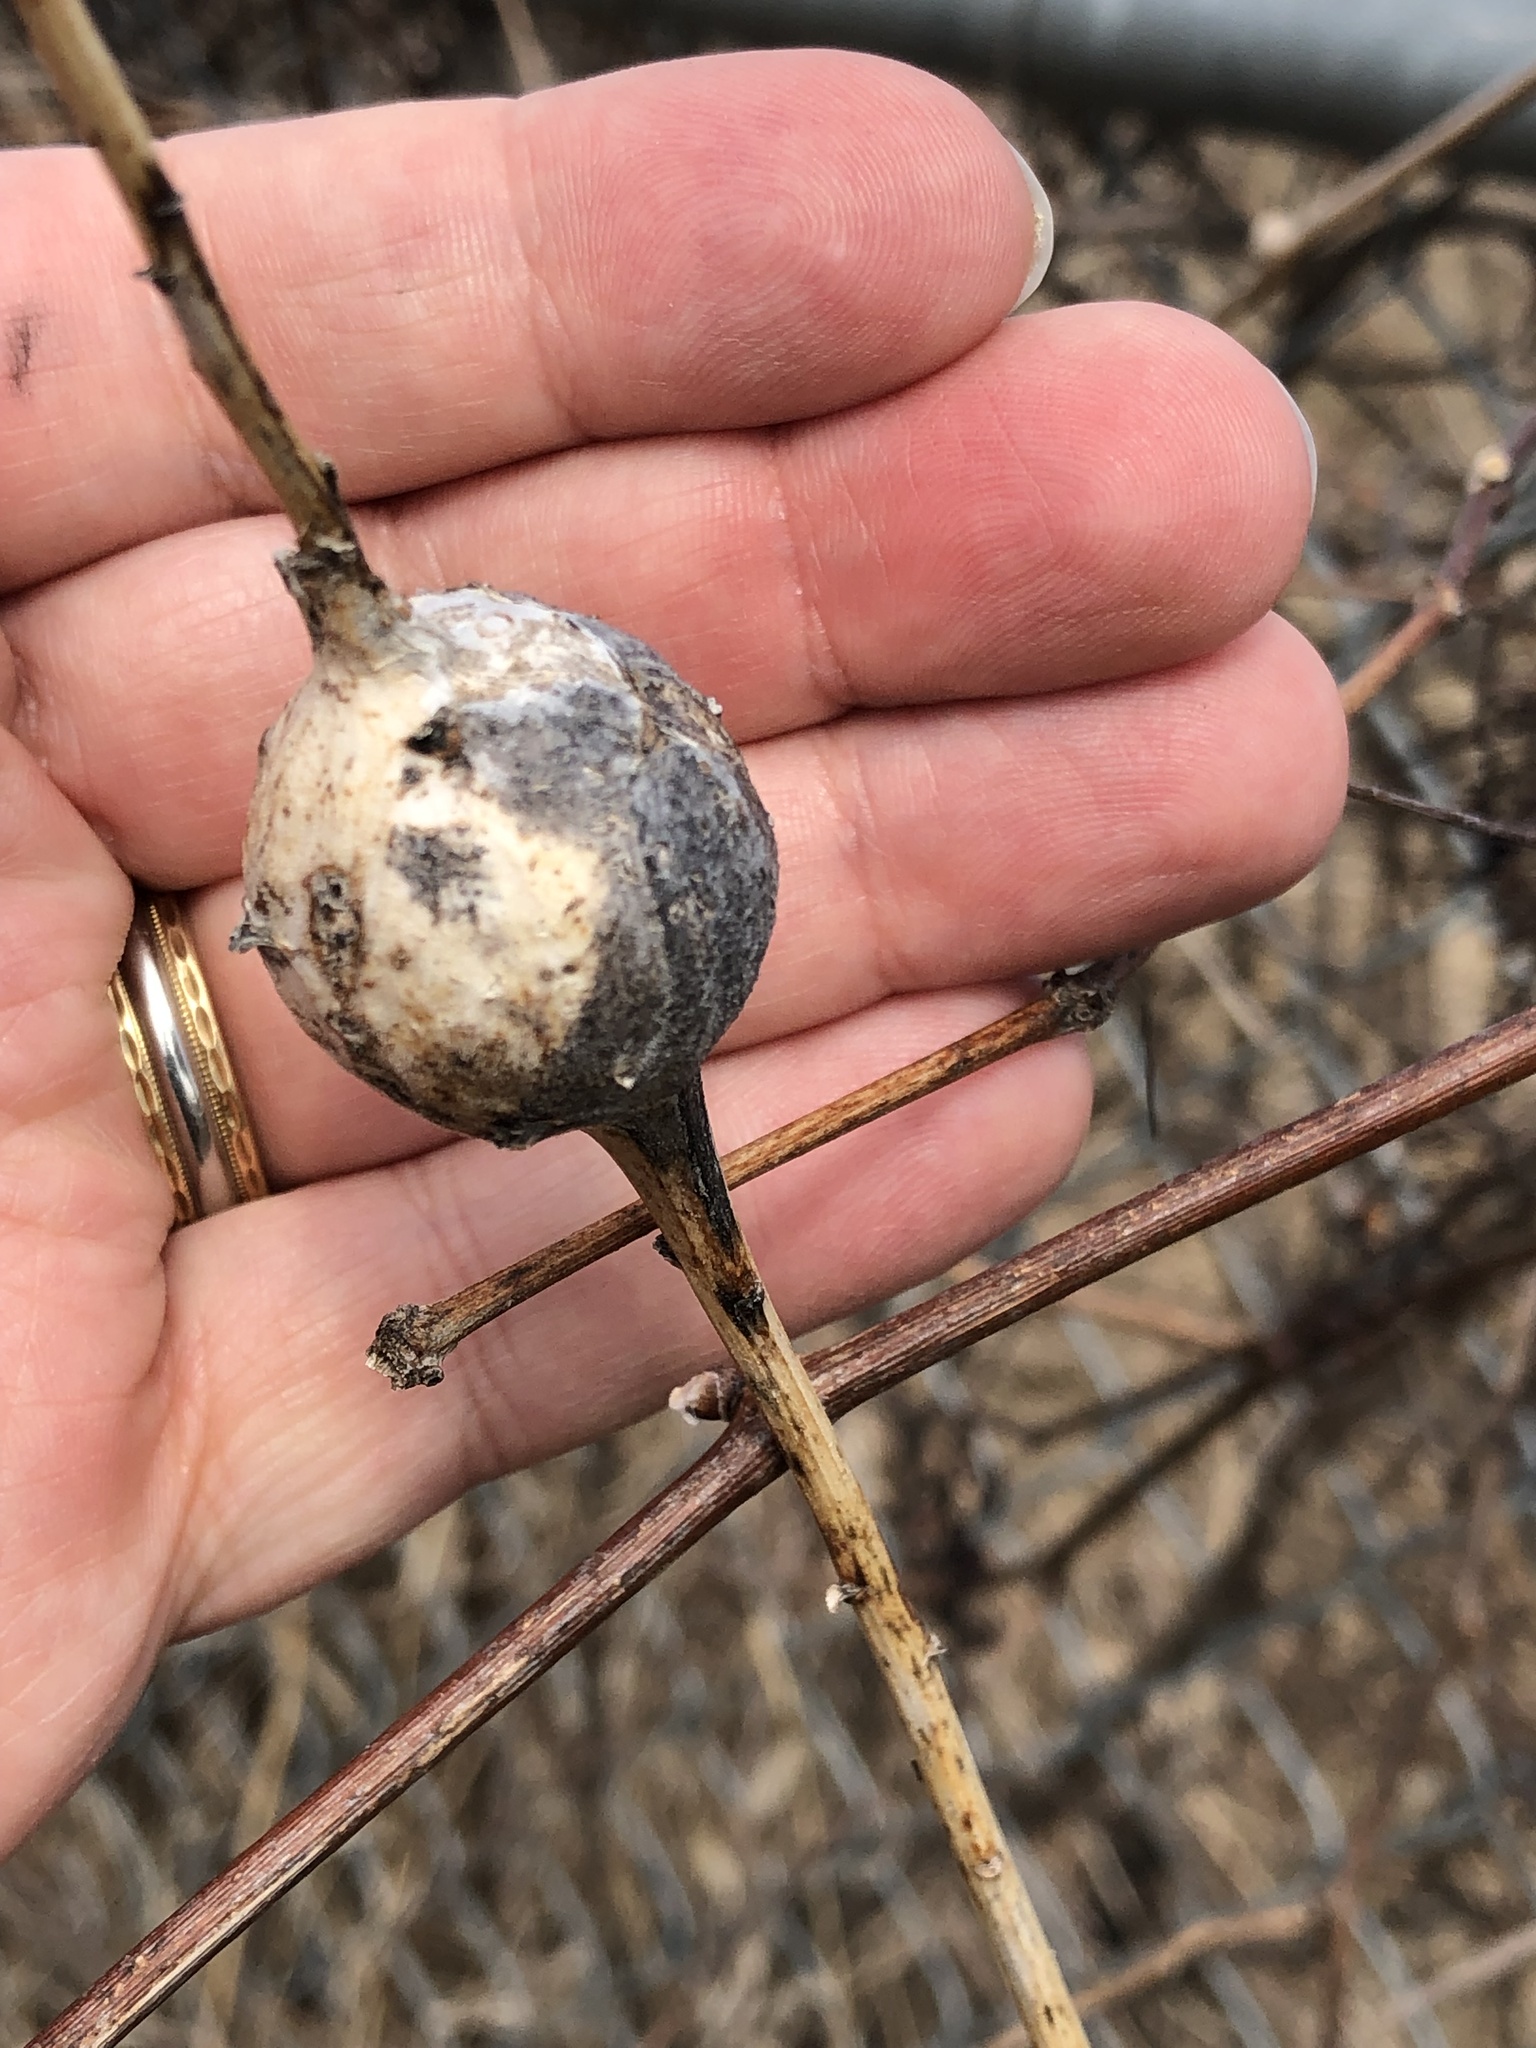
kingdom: Animalia
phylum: Arthropoda
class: Insecta
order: Diptera
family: Tephritidae
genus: Eurosta
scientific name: Eurosta solidaginis
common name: Goldenrod gall fly
